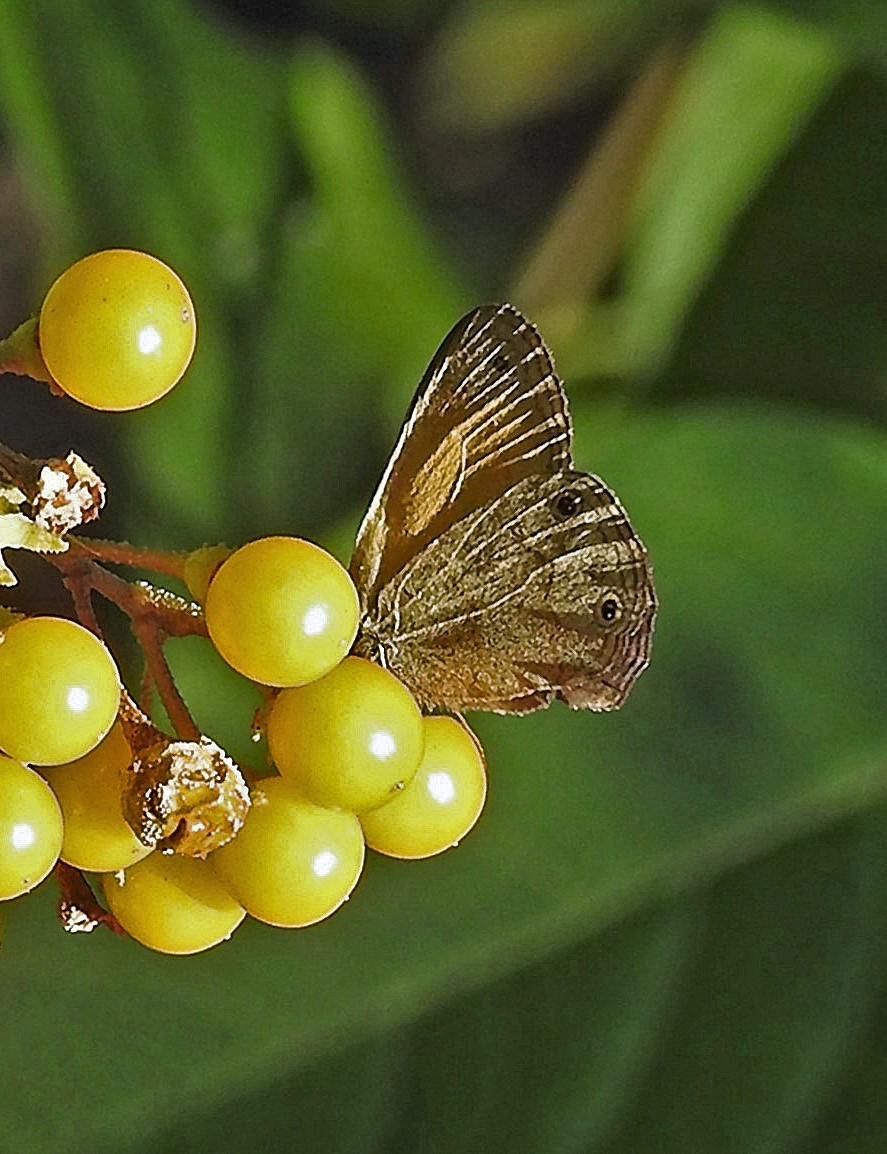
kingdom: Animalia
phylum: Arthropoda
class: Insecta
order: Lepidoptera
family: Nymphalidae
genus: Pharneuptychia
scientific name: Pharneuptychia phares
